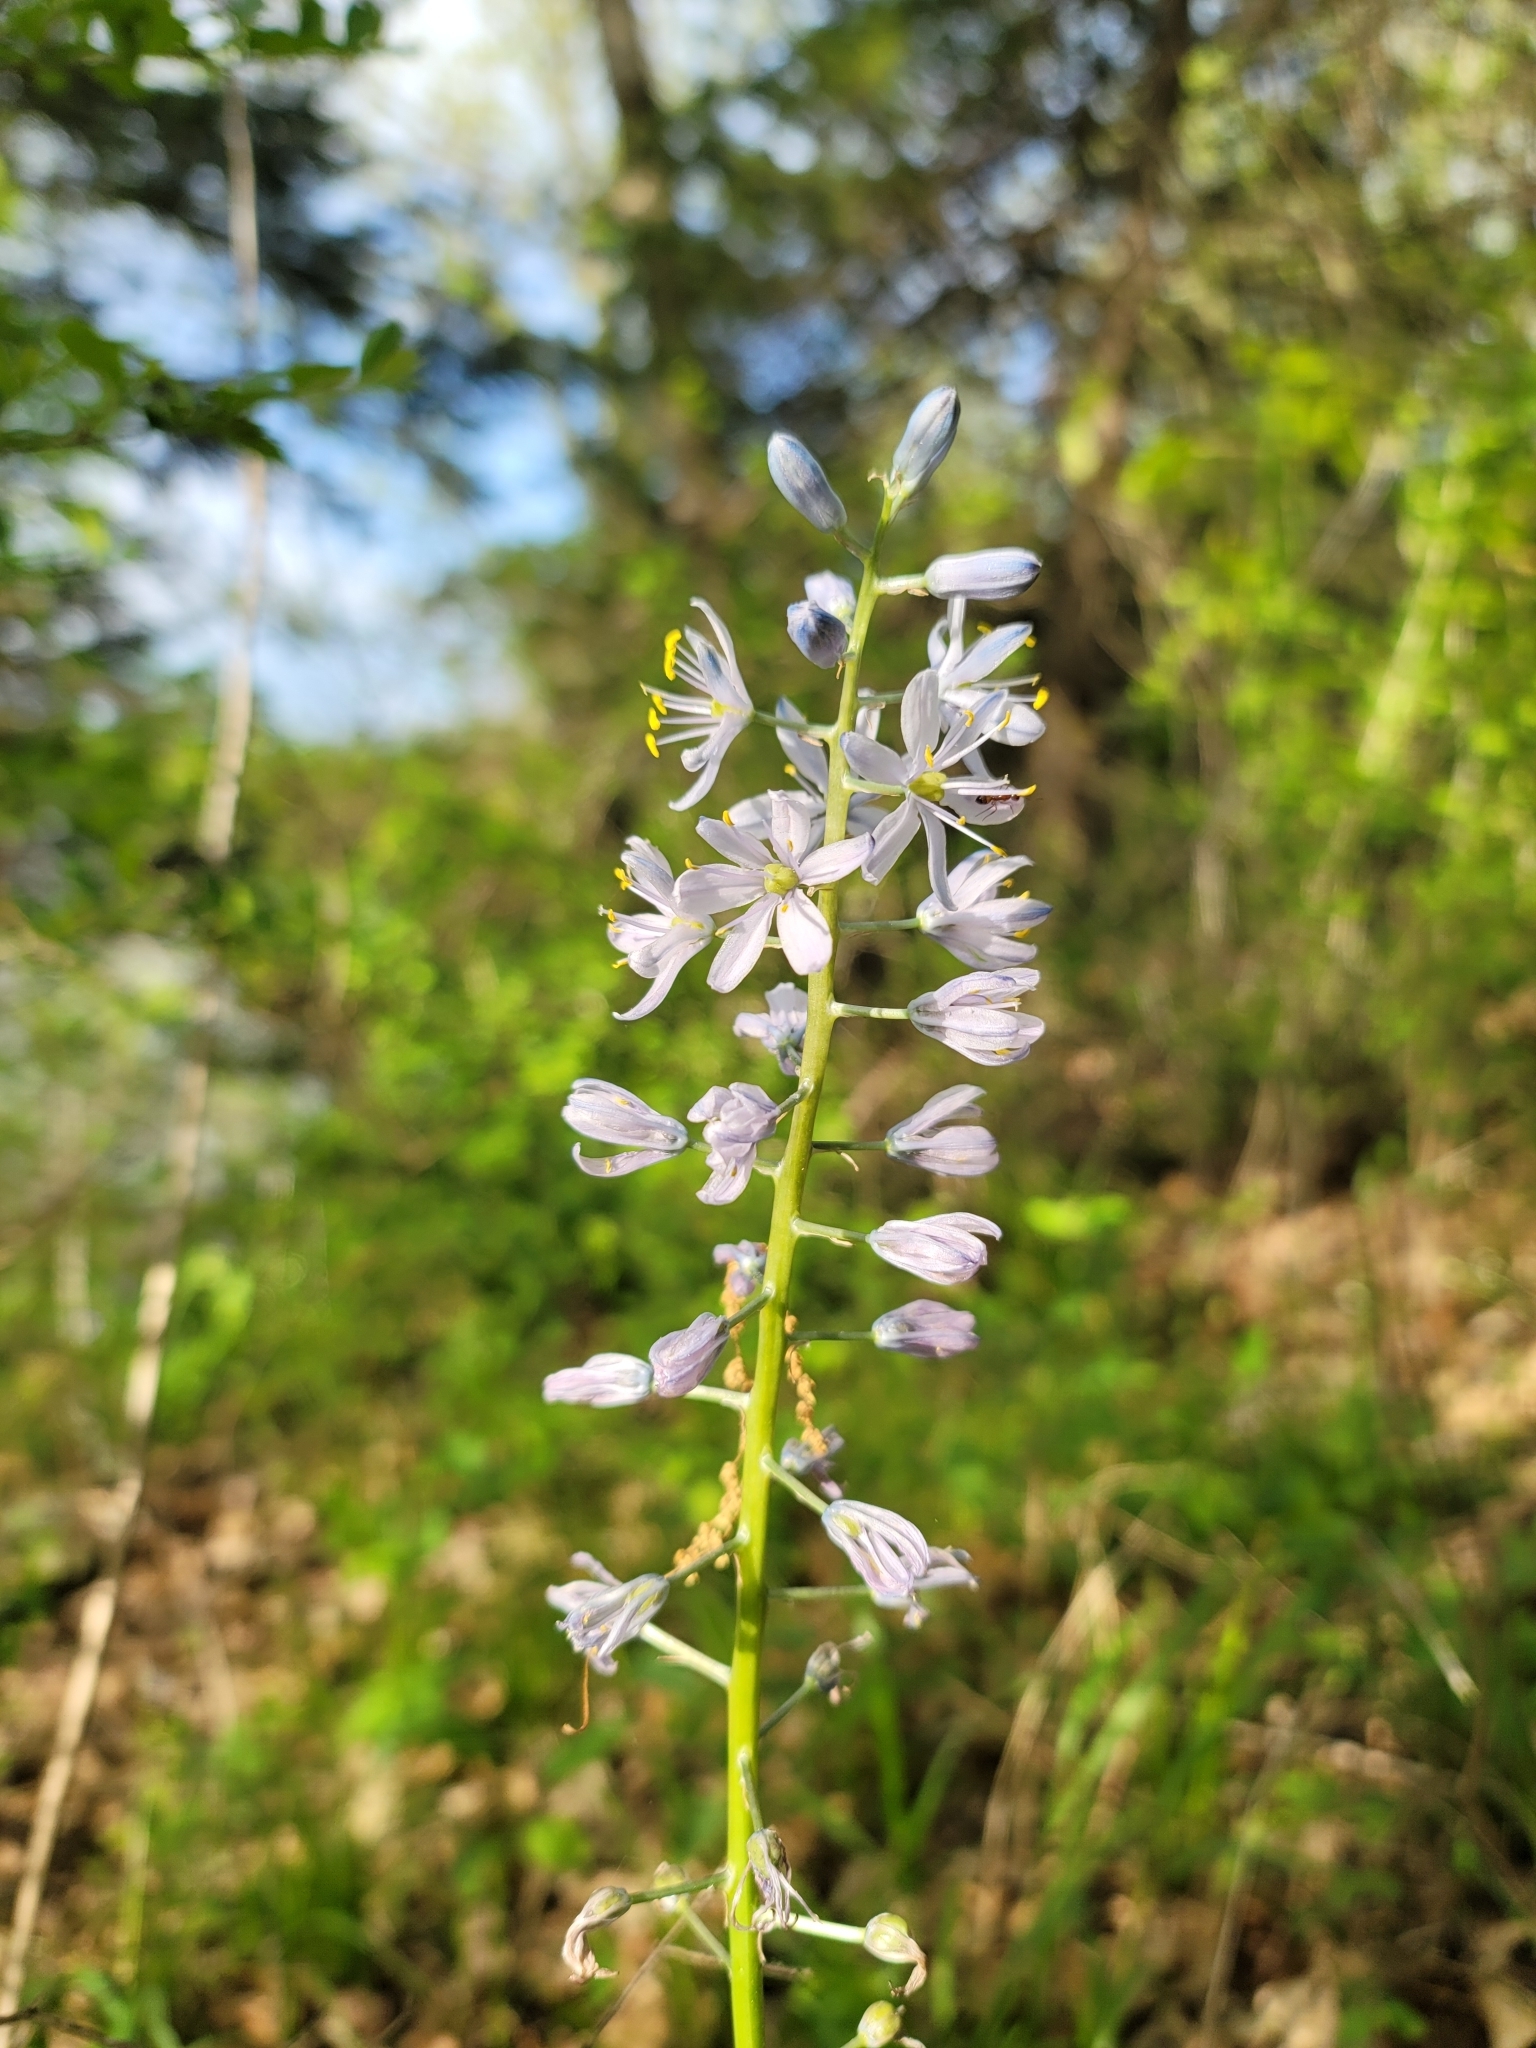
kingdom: Plantae
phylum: Tracheophyta
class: Liliopsida
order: Asparagales
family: Asparagaceae
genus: Camassia
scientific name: Camassia scilloides
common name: Wild hyacinth
